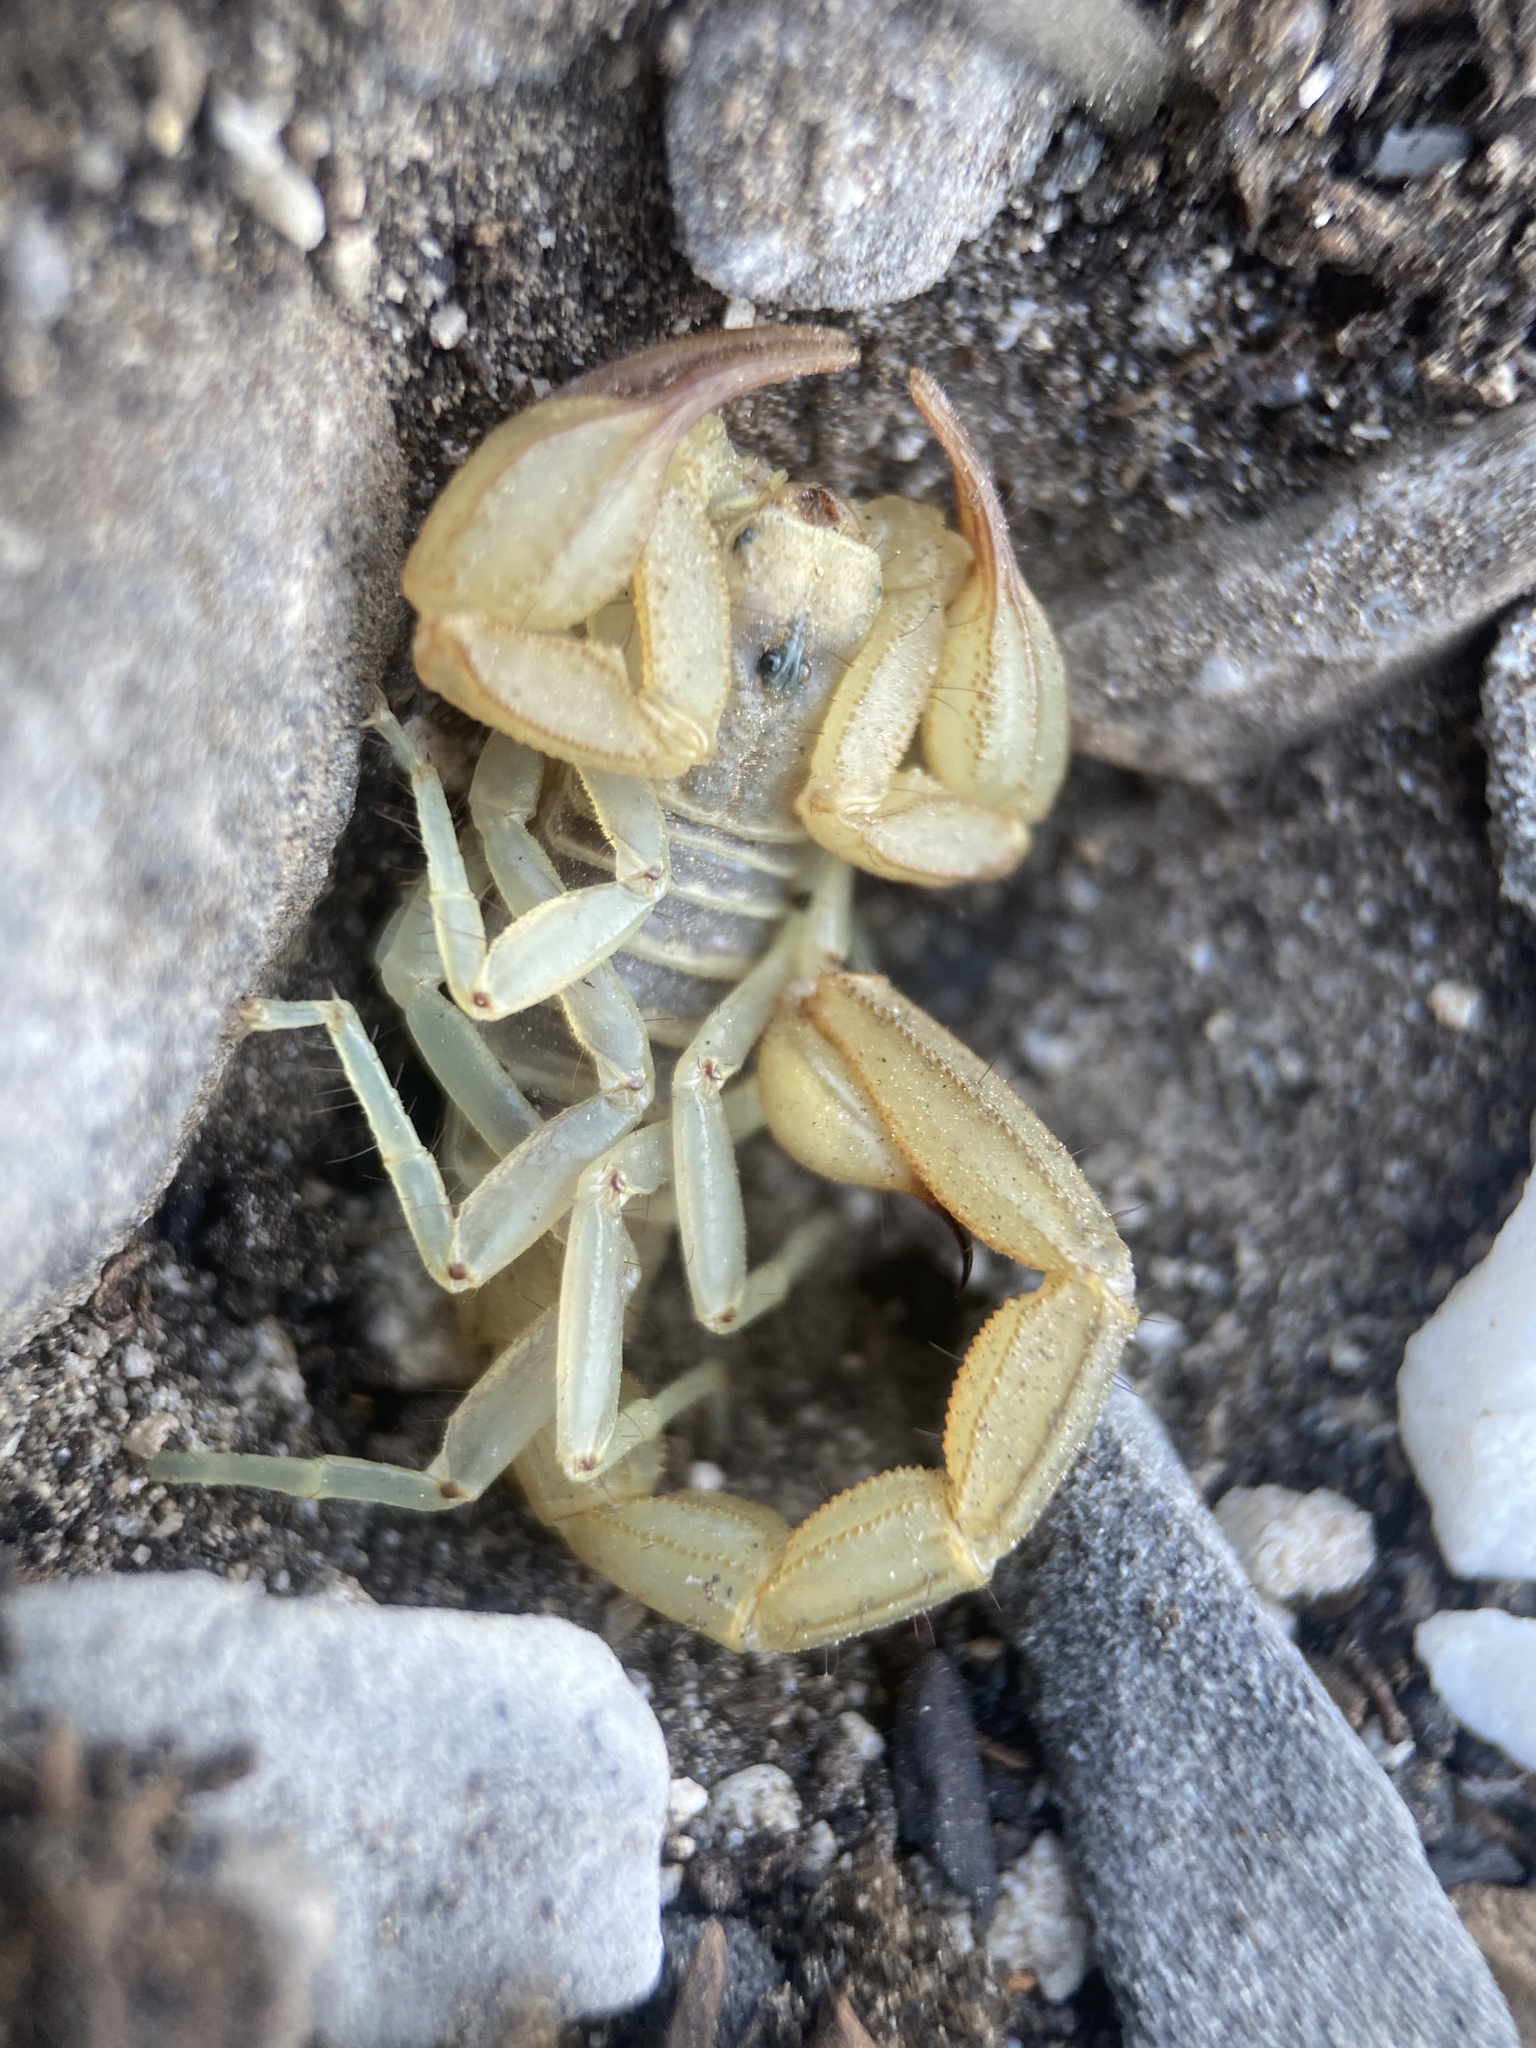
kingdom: Animalia
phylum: Arthropoda
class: Arachnida
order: Scorpiones
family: Vaejovidae
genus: Paruroctonus
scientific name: Paruroctonus boreus
